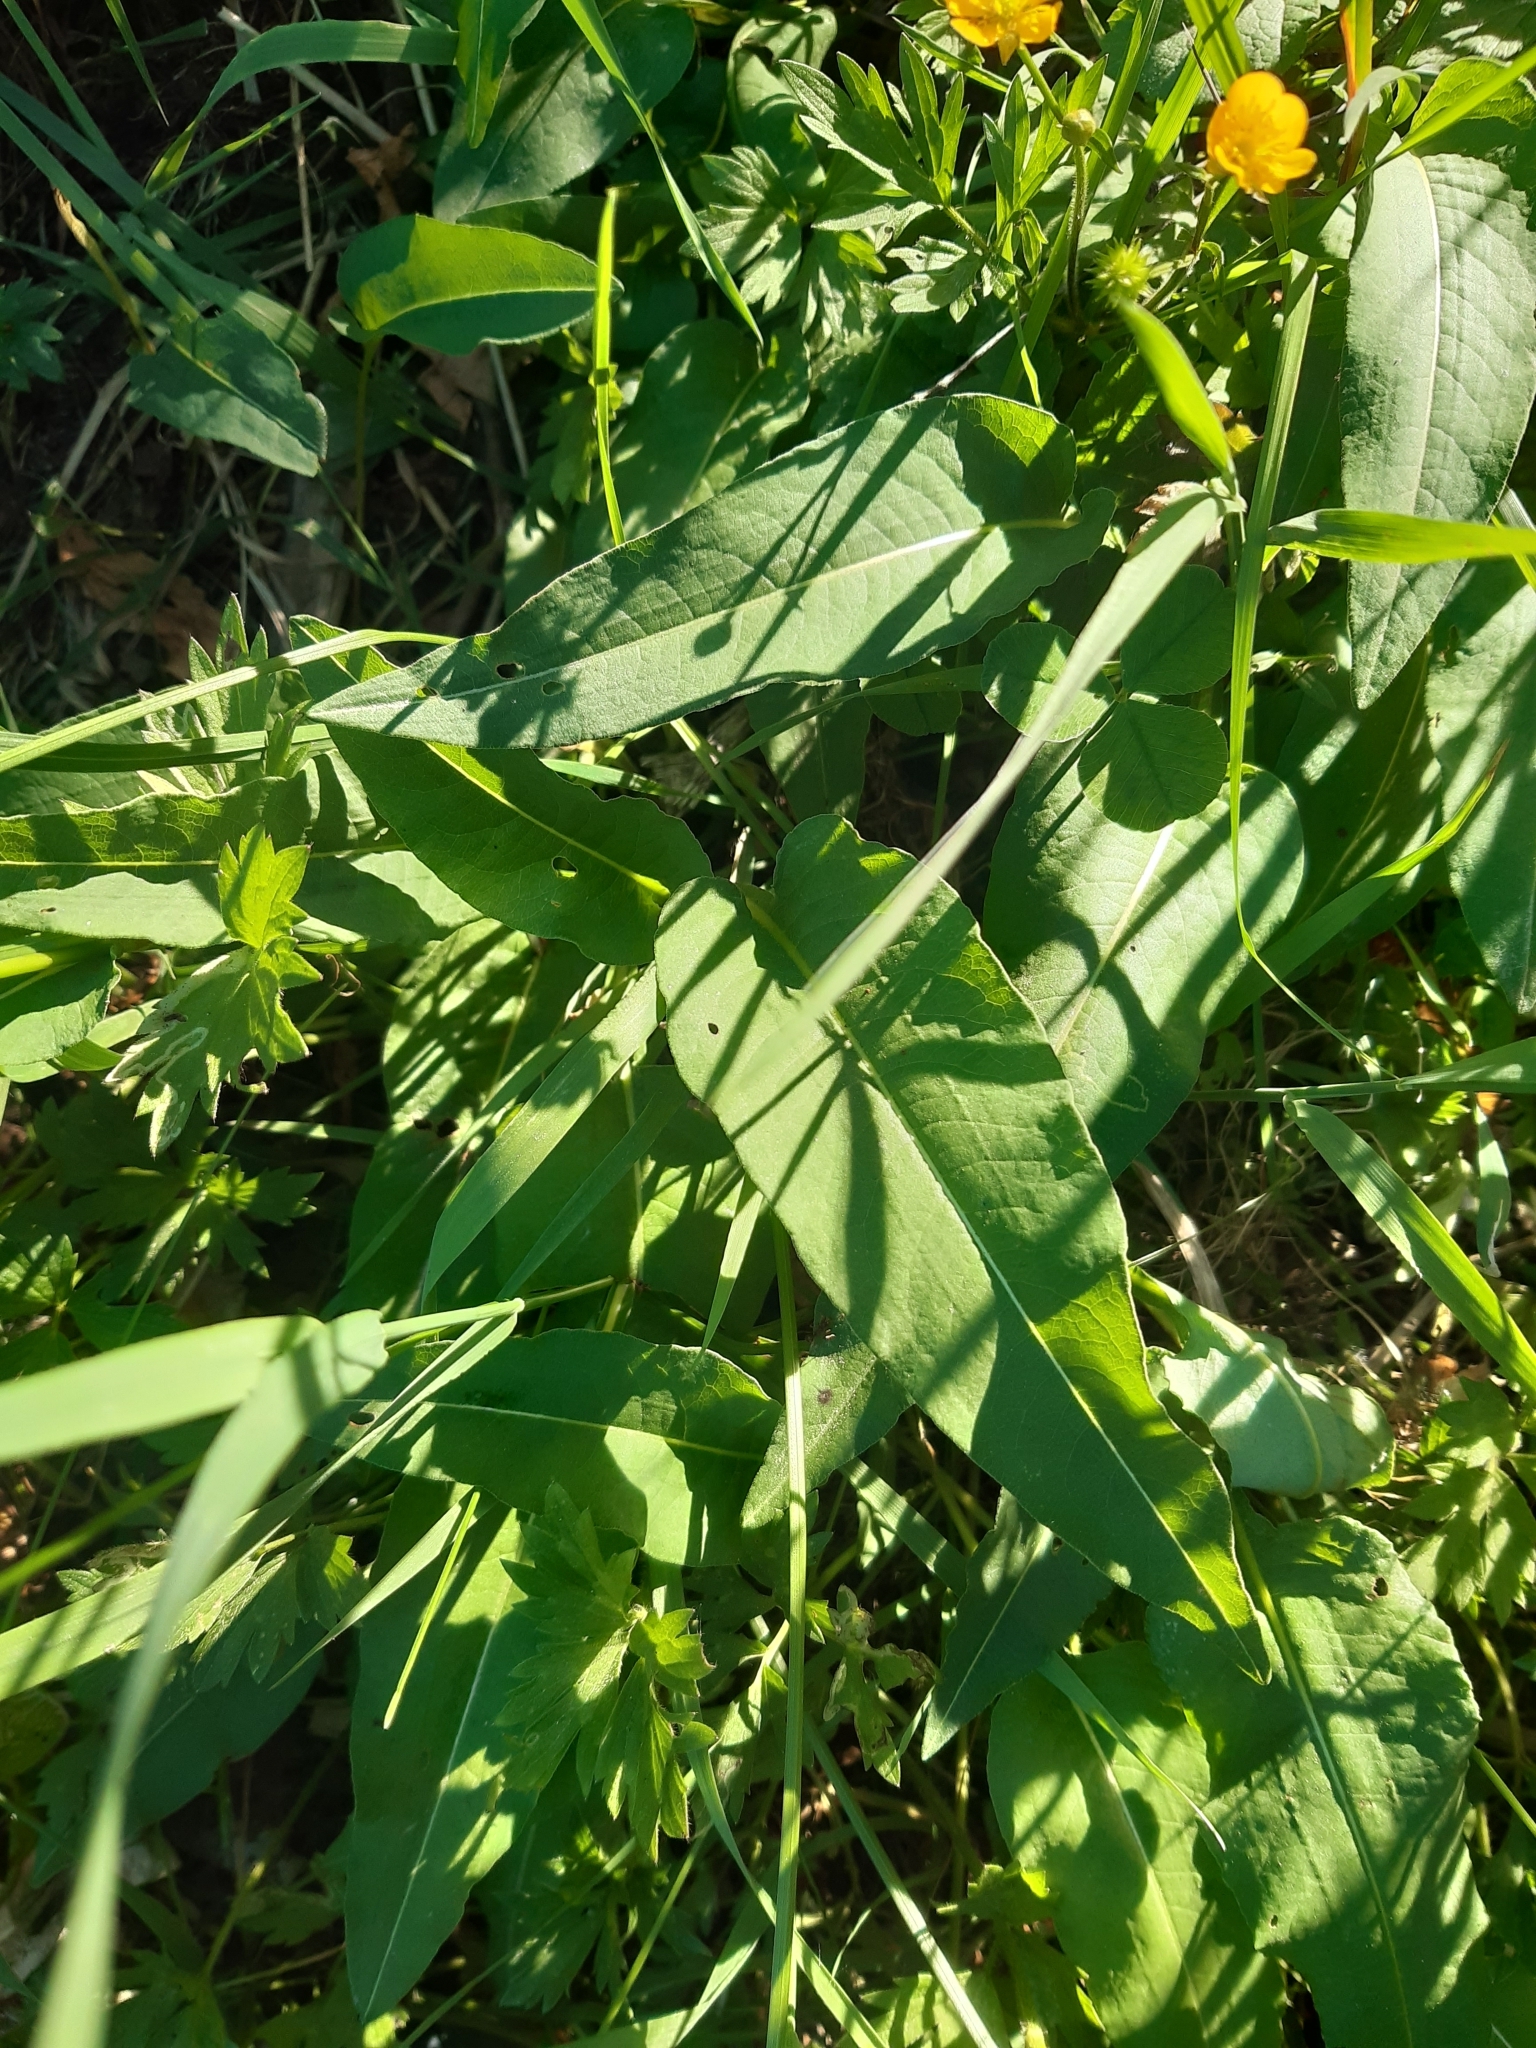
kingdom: Plantae
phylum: Tracheophyta
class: Magnoliopsida
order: Caryophyllales
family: Polygonaceae
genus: Bistorta
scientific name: Bistorta officinalis
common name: Common bistort
